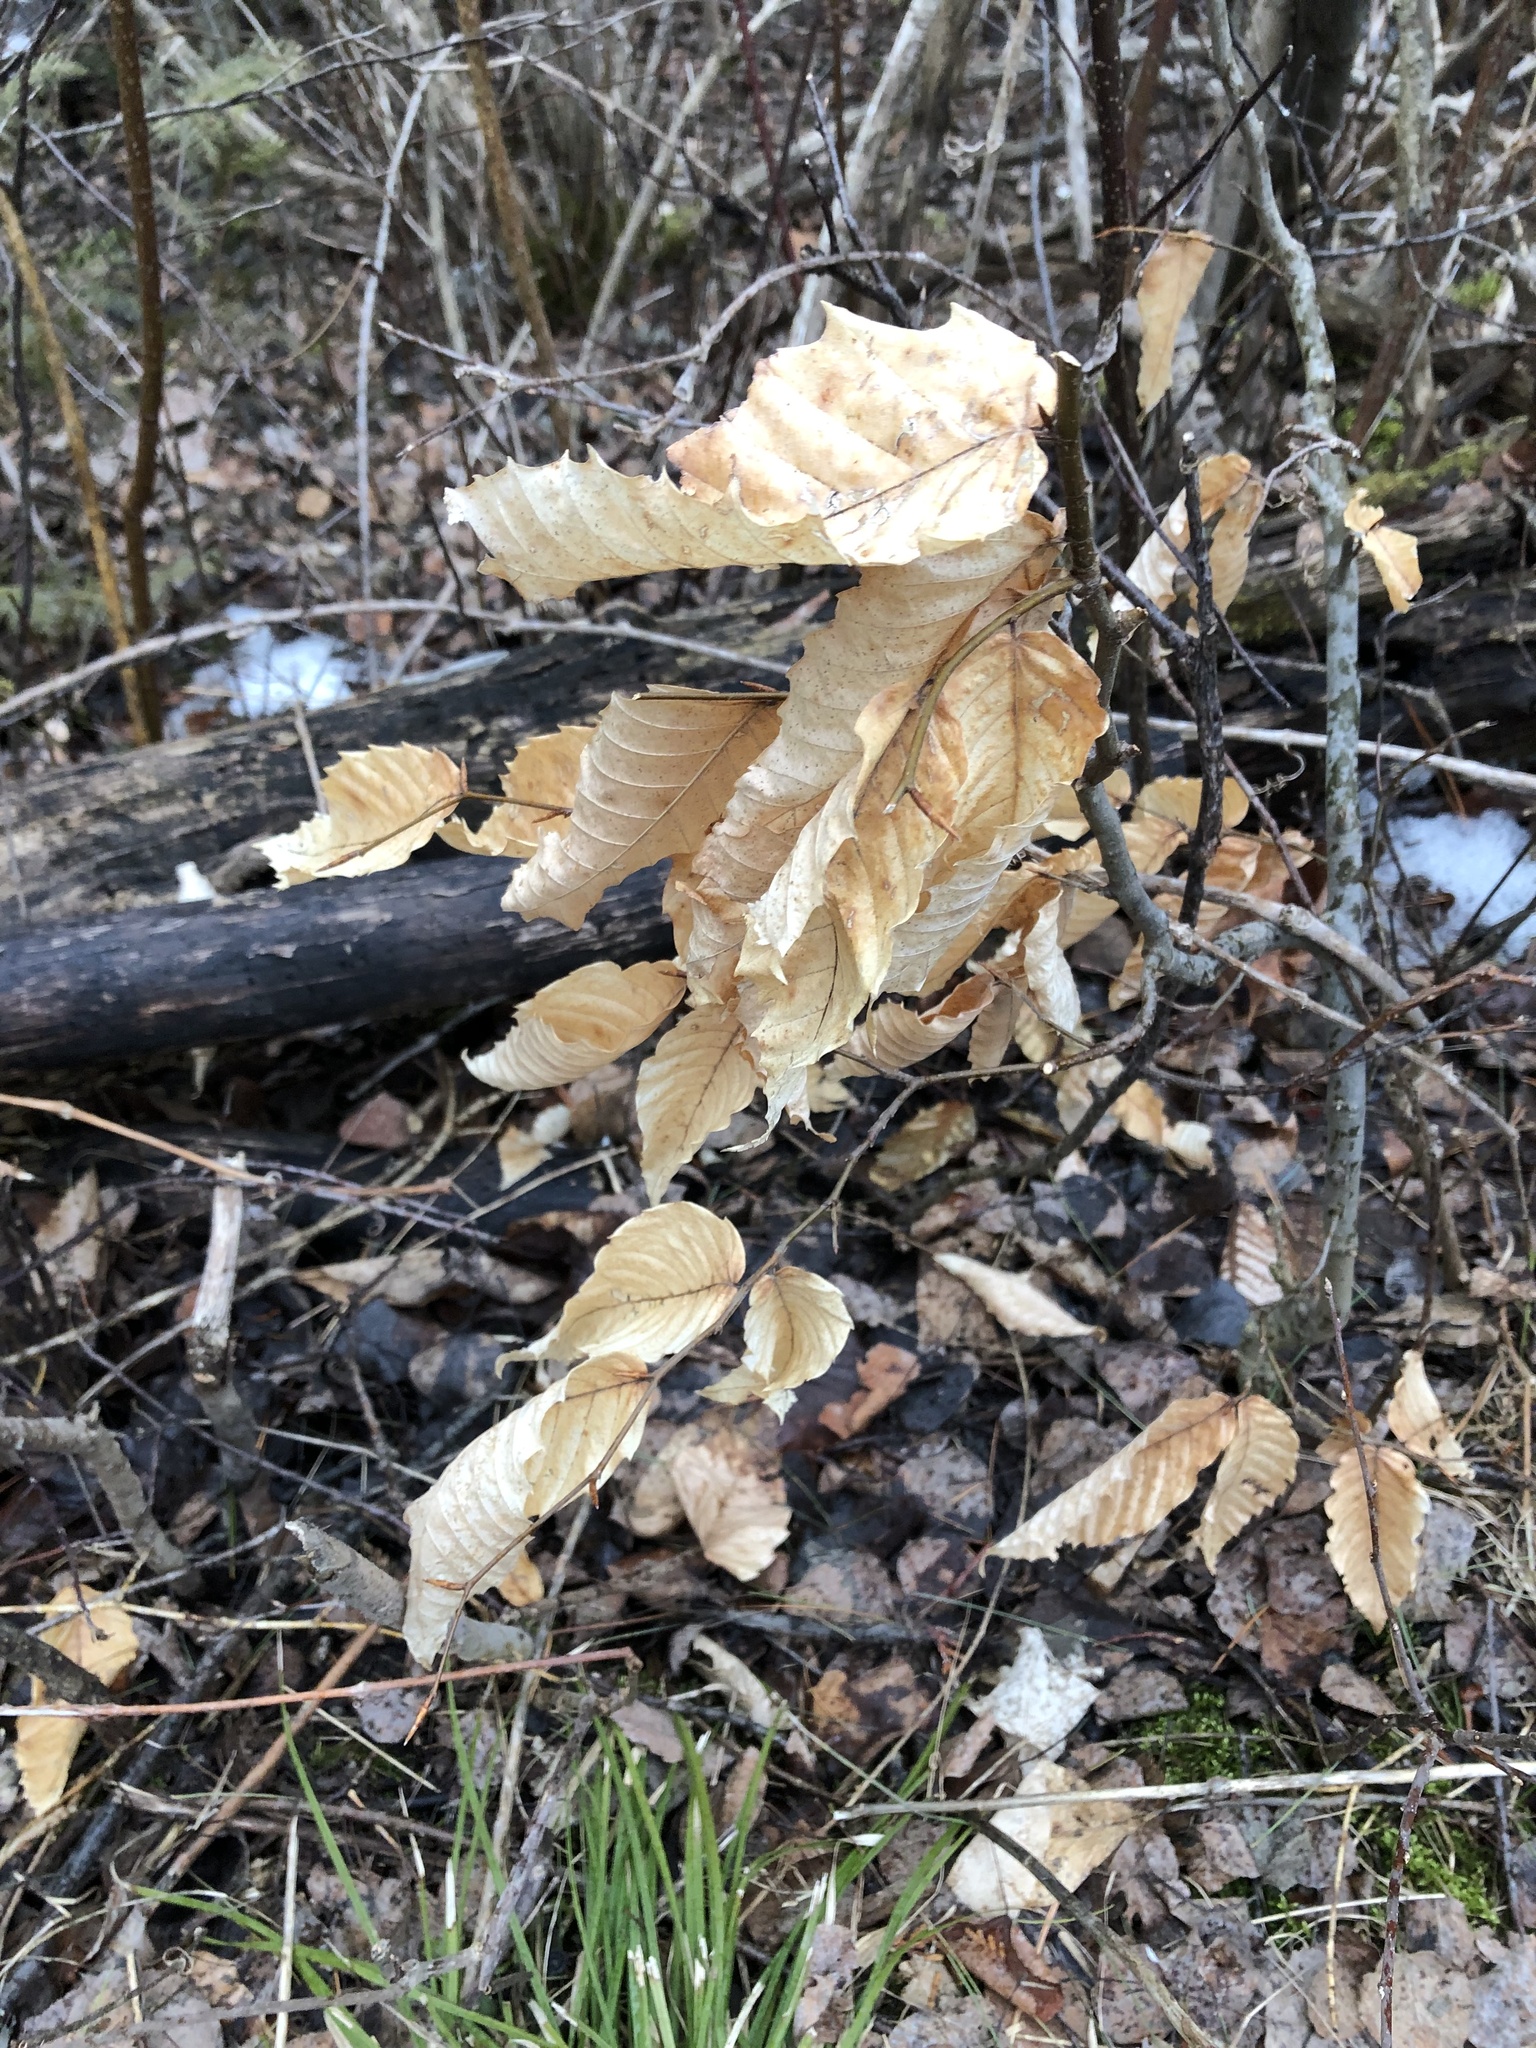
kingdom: Plantae
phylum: Tracheophyta
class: Magnoliopsida
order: Fagales
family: Fagaceae
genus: Fagus
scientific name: Fagus grandifolia
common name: American beech
